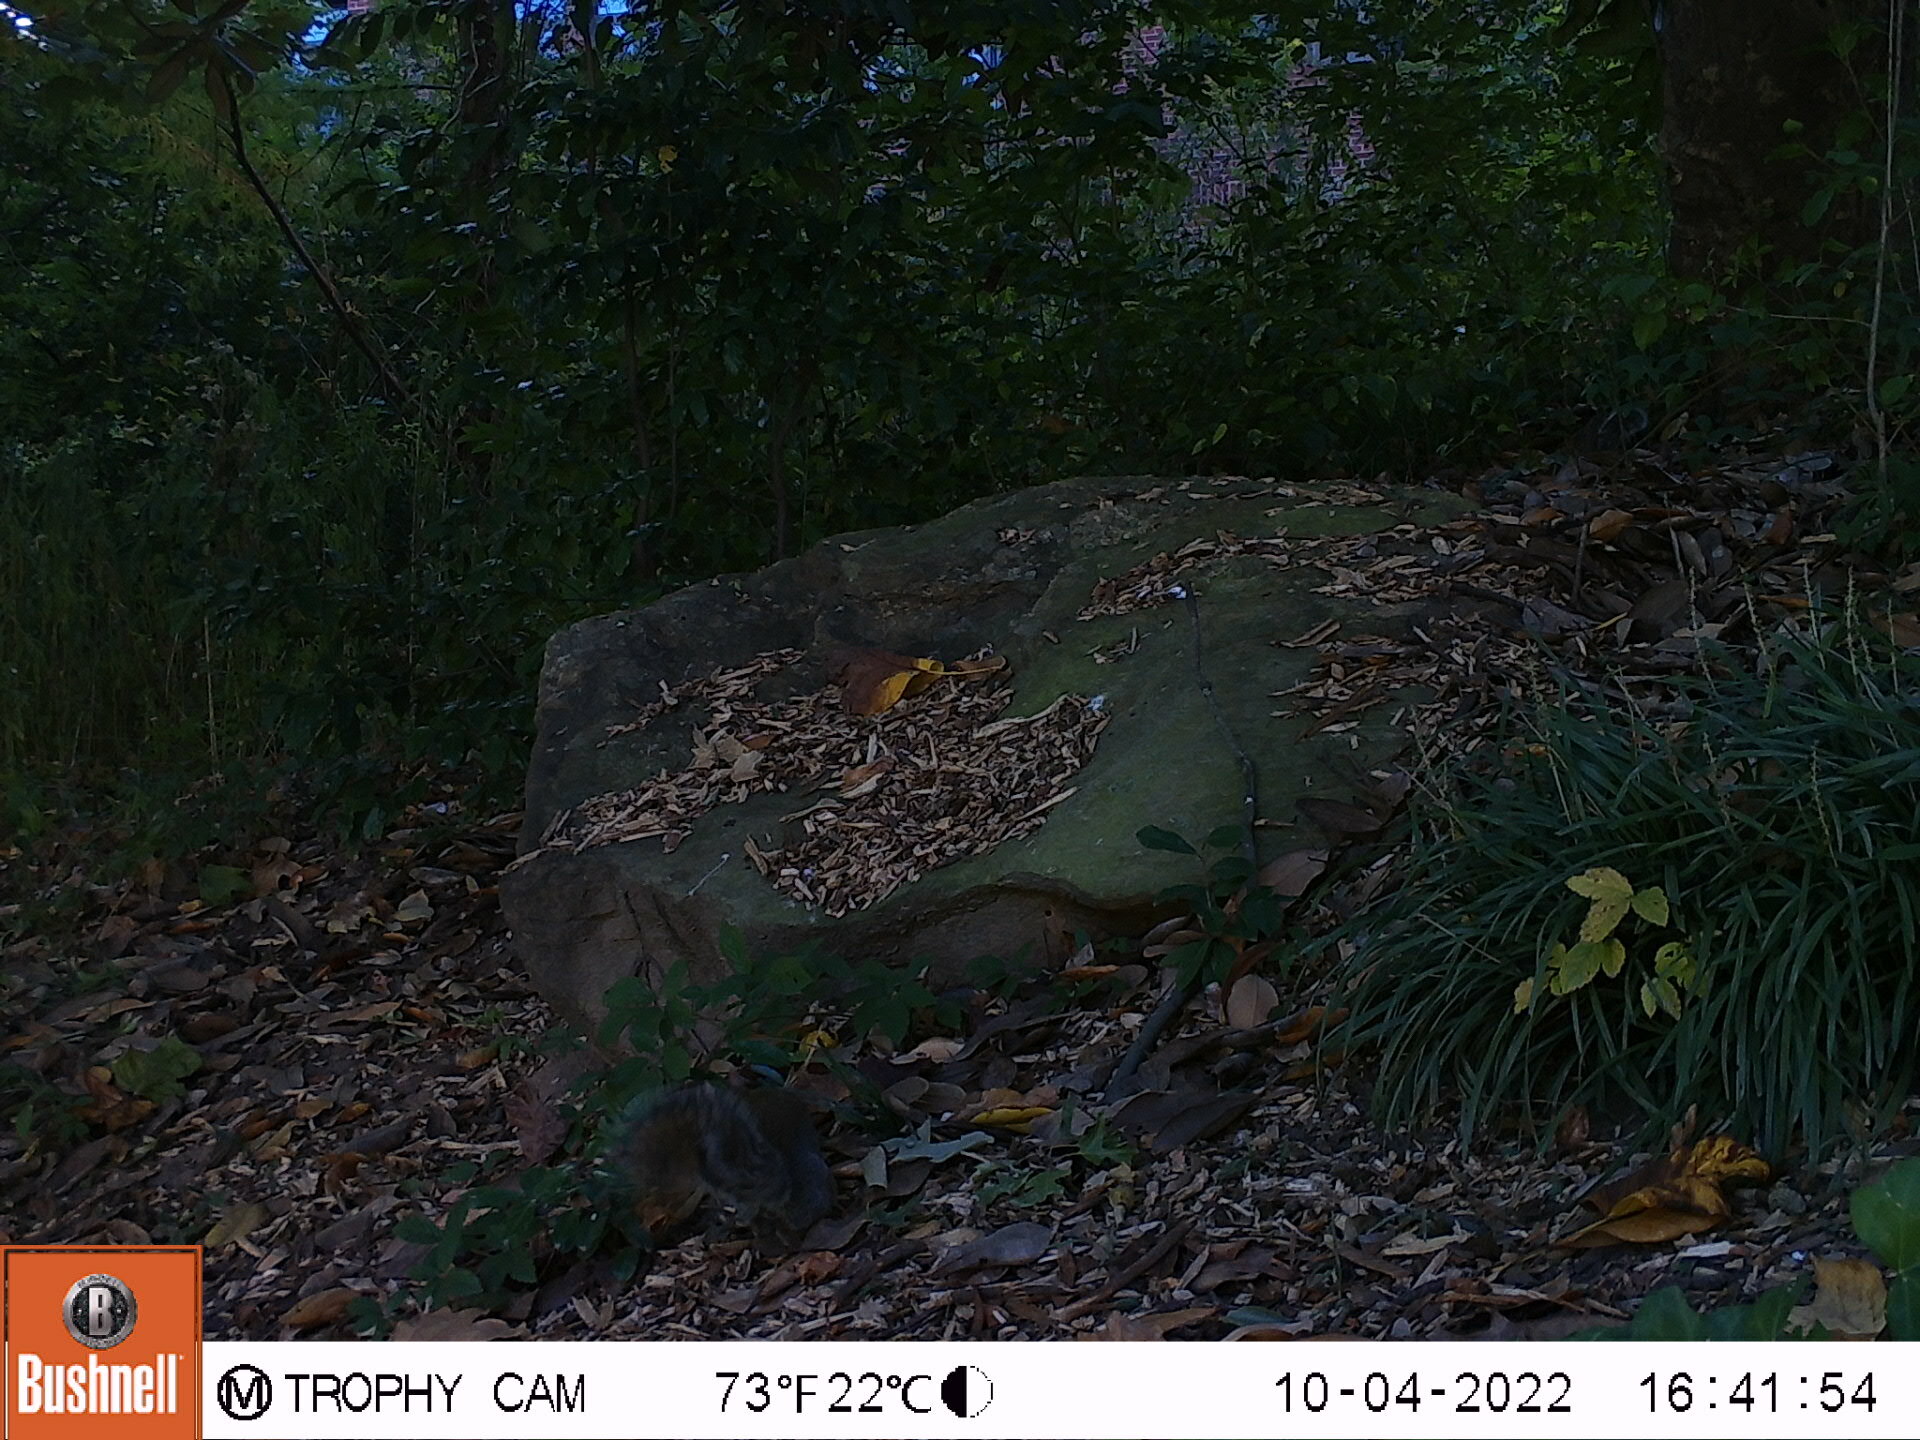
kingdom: Animalia
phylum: Chordata
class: Mammalia
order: Rodentia
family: Sciuridae
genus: Sciurus
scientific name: Sciurus carolinensis
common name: Eastern gray squirrel
